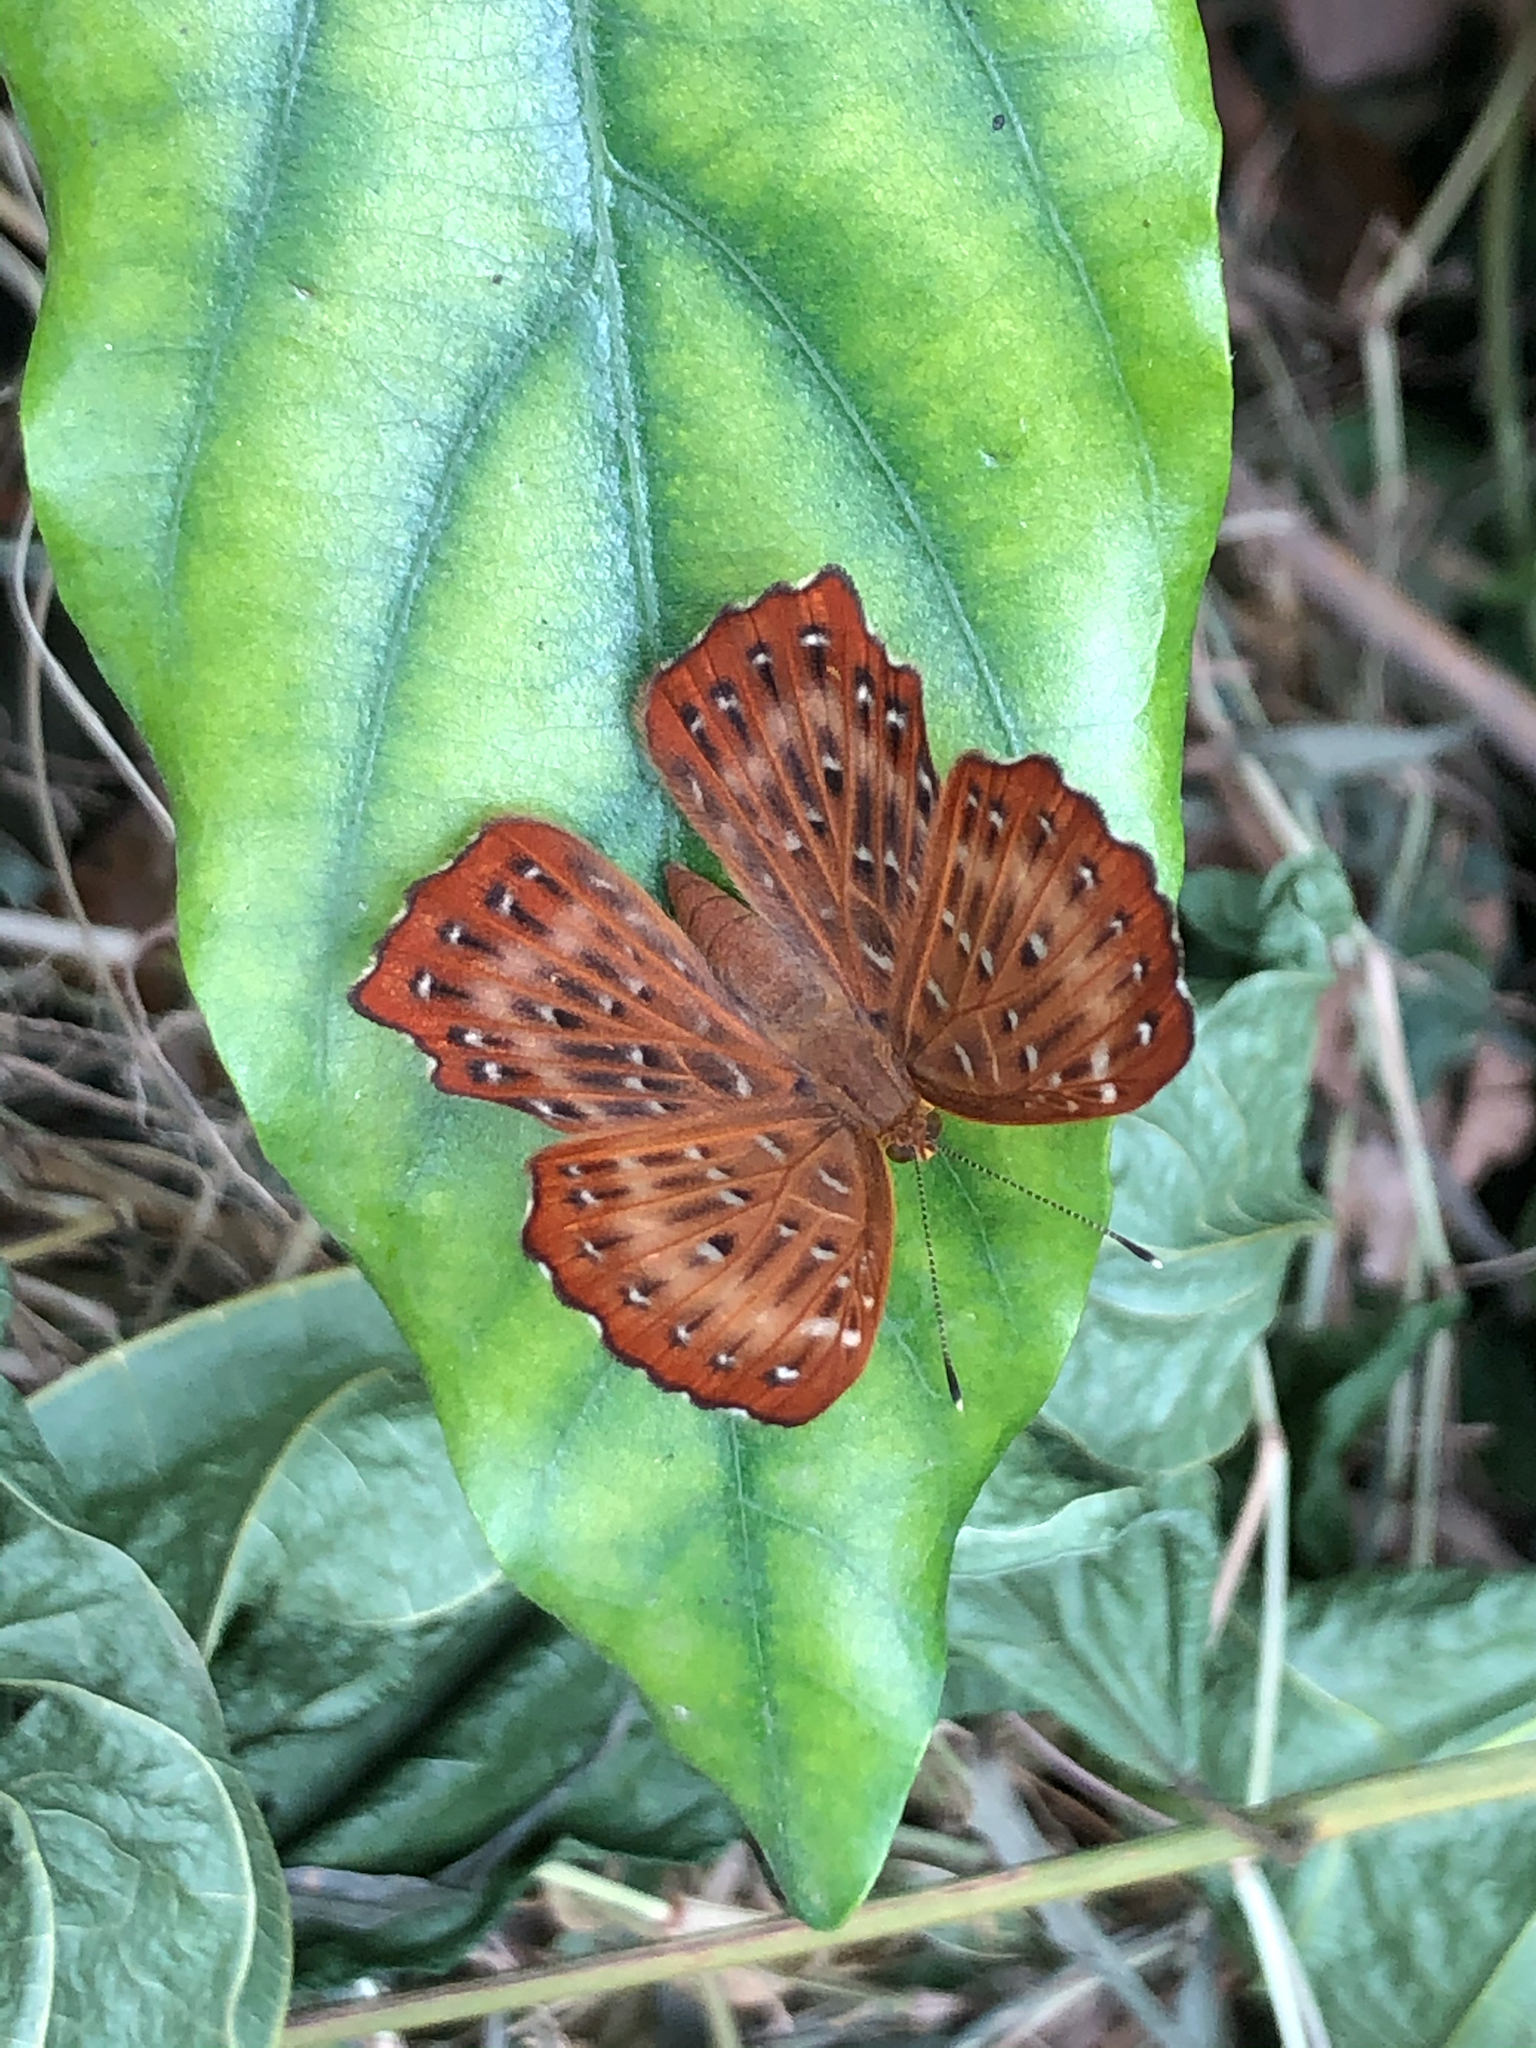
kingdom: Animalia
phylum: Arthropoda
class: Insecta
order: Lepidoptera
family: Riodinidae
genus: Zemeros
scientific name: Zemeros flegyas
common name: Punchinello
